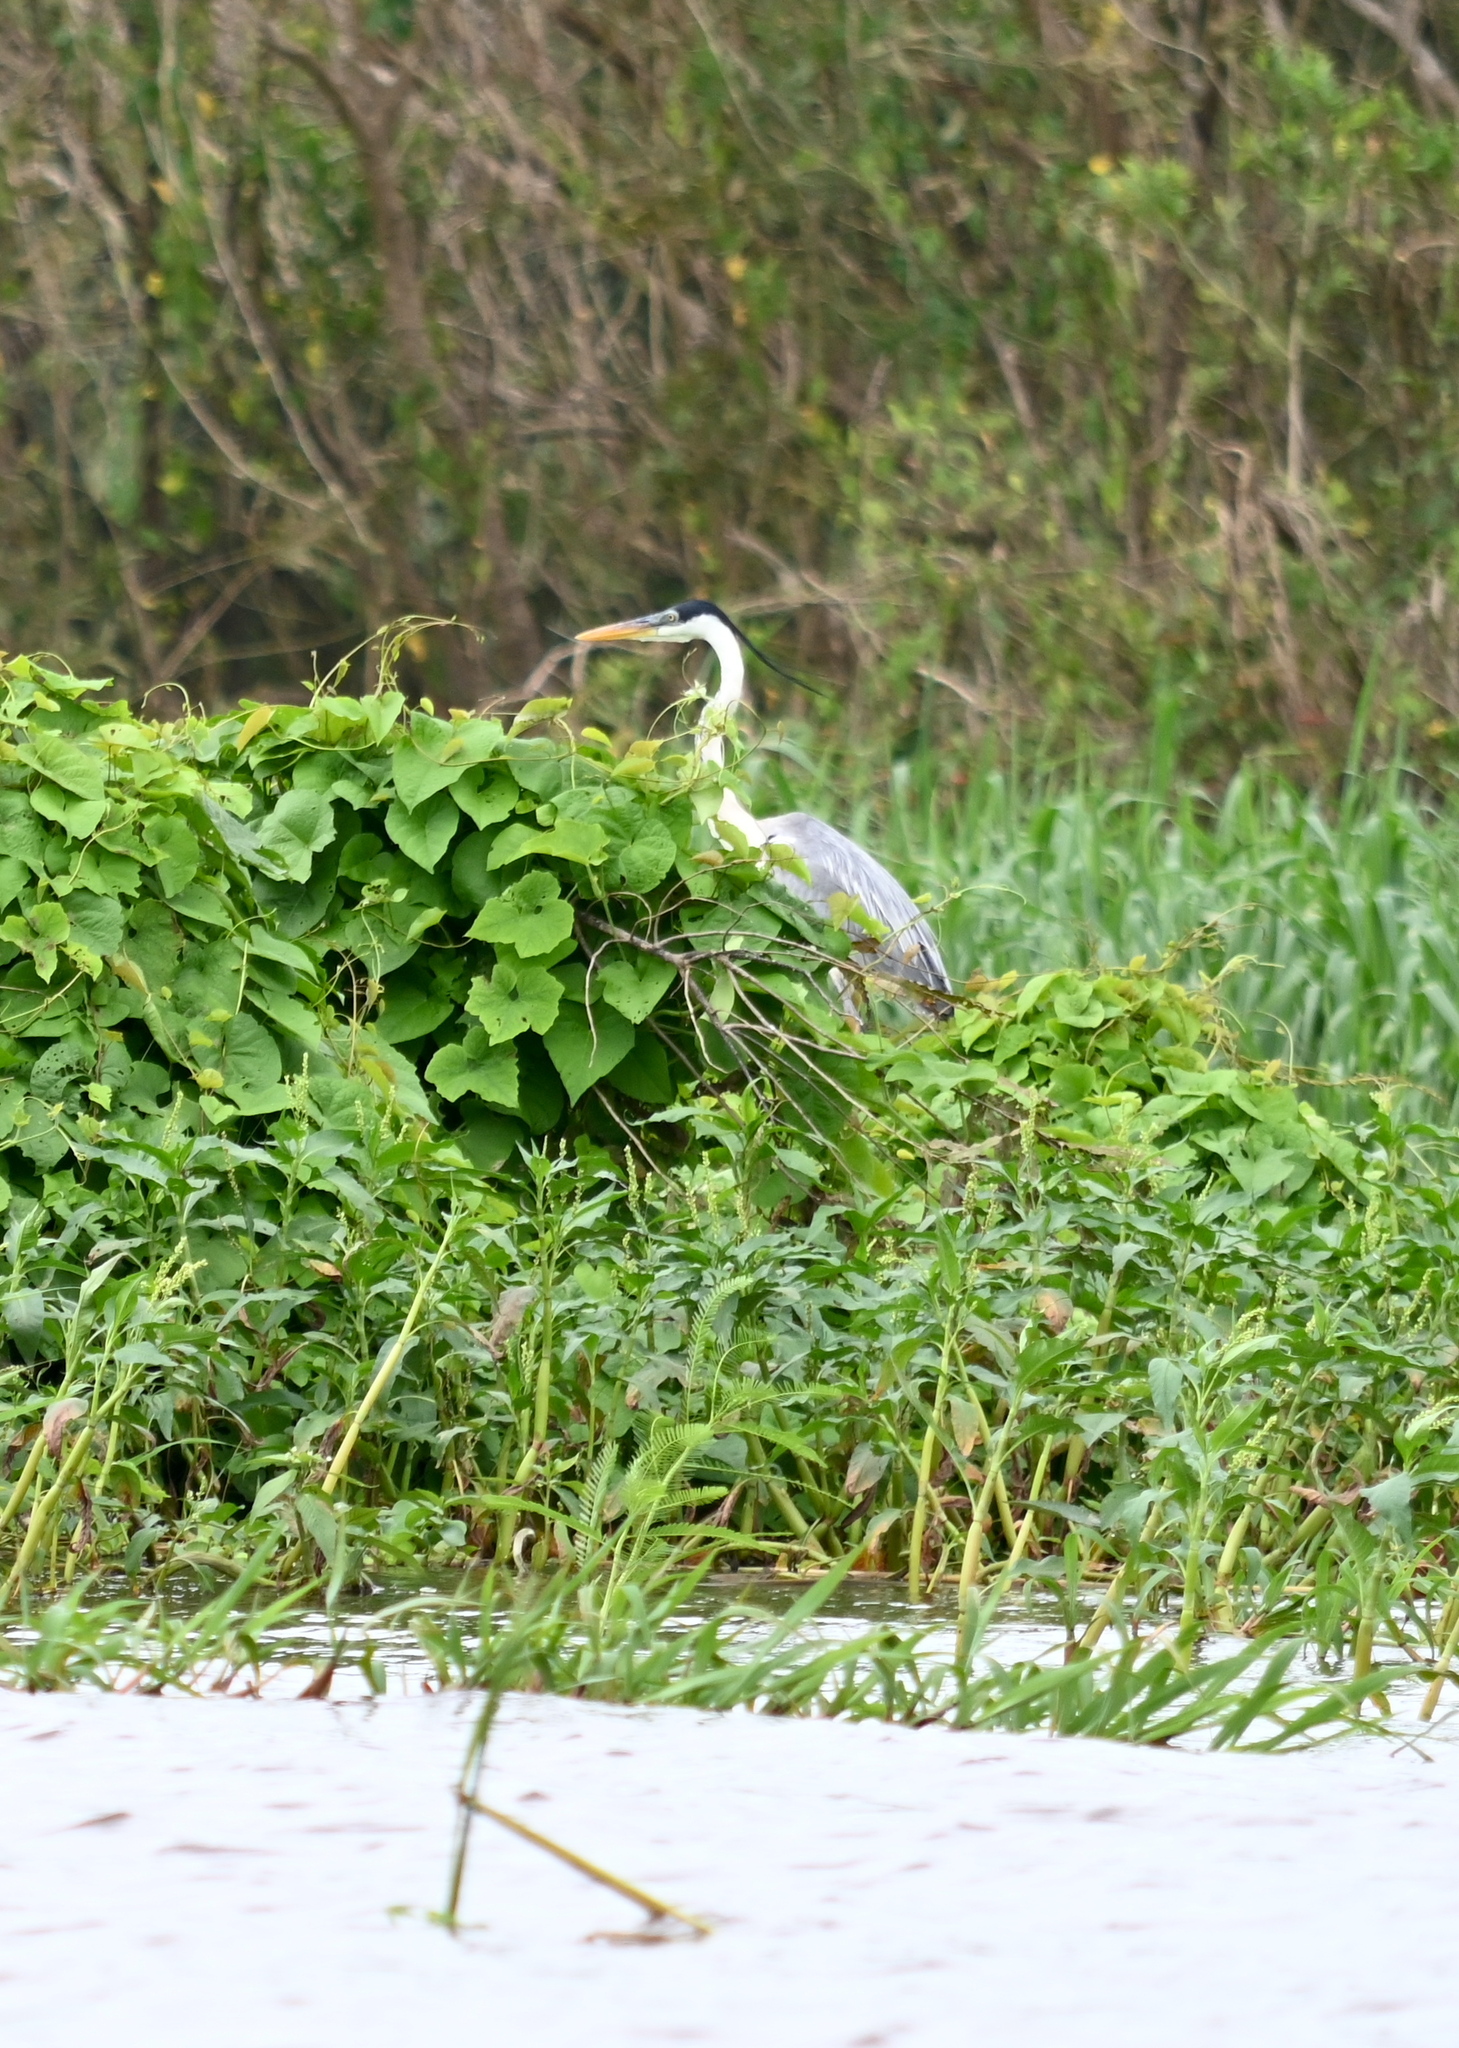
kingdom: Animalia
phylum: Chordata
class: Aves
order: Pelecaniformes
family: Ardeidae
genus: Ardea
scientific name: Ardea cocoi
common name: Cocoi heron
